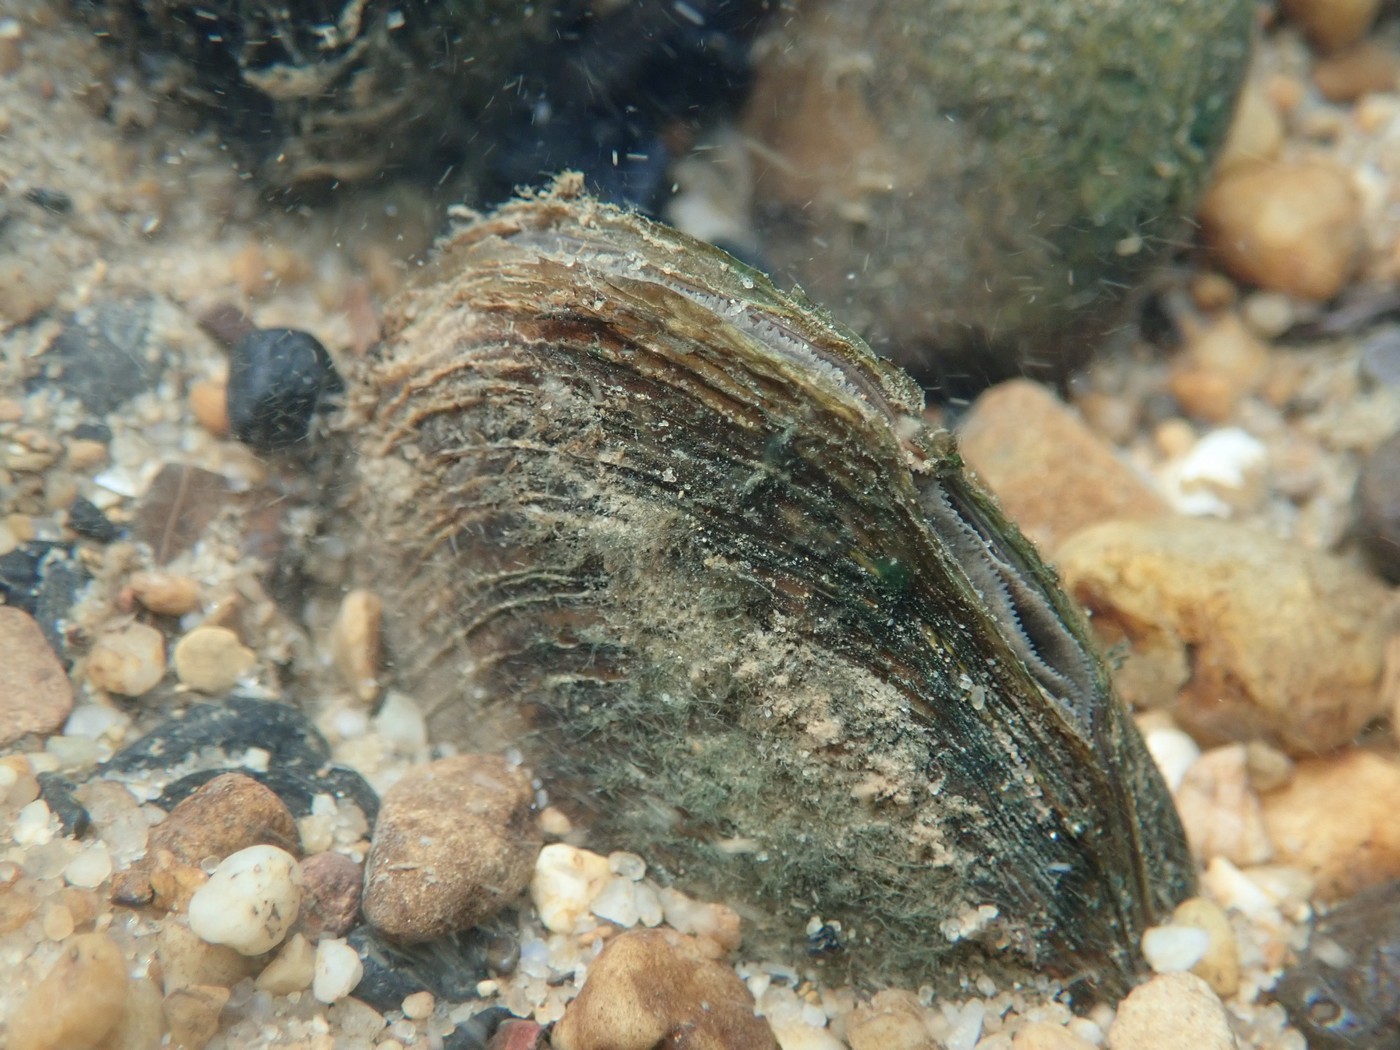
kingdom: Animalia
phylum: Mollusca
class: Bivalvia
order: Unionida
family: Unionidae
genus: Ptychobranchus
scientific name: Ptychobranchus fasciolaris
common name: Kidneyshell
